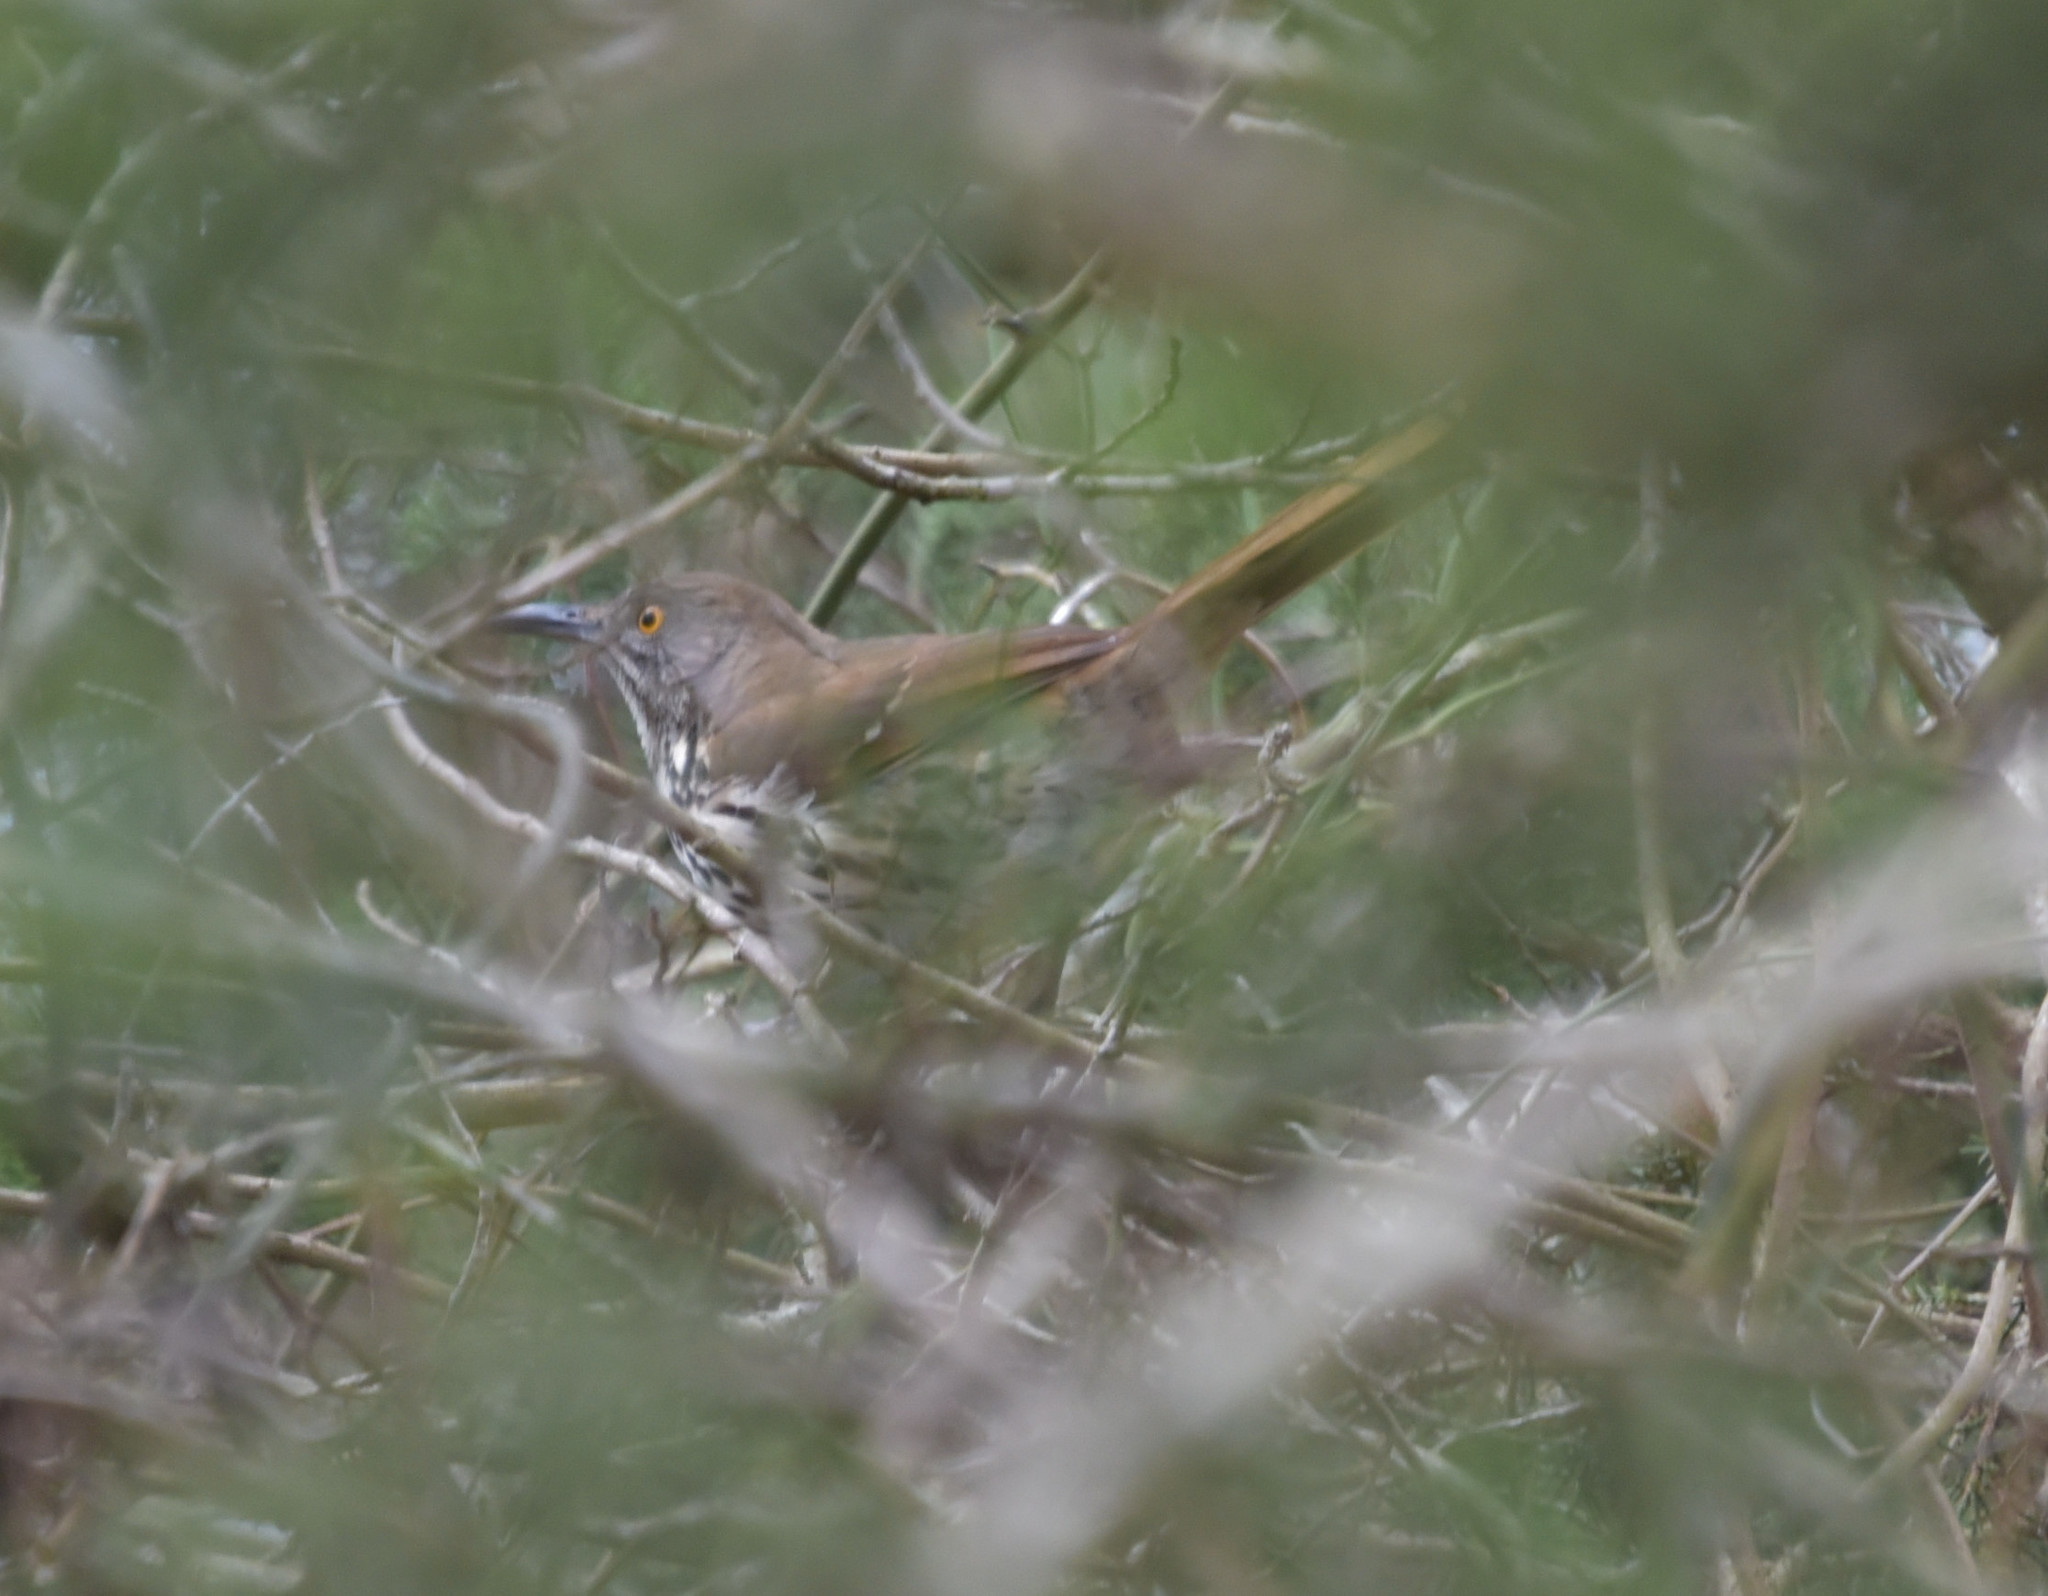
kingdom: Animalia
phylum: Chordata
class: Aves
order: Passeriformes
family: Mimidae
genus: Toxostoma
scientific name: Toxostoma longirostre
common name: Long-billed thrasher
